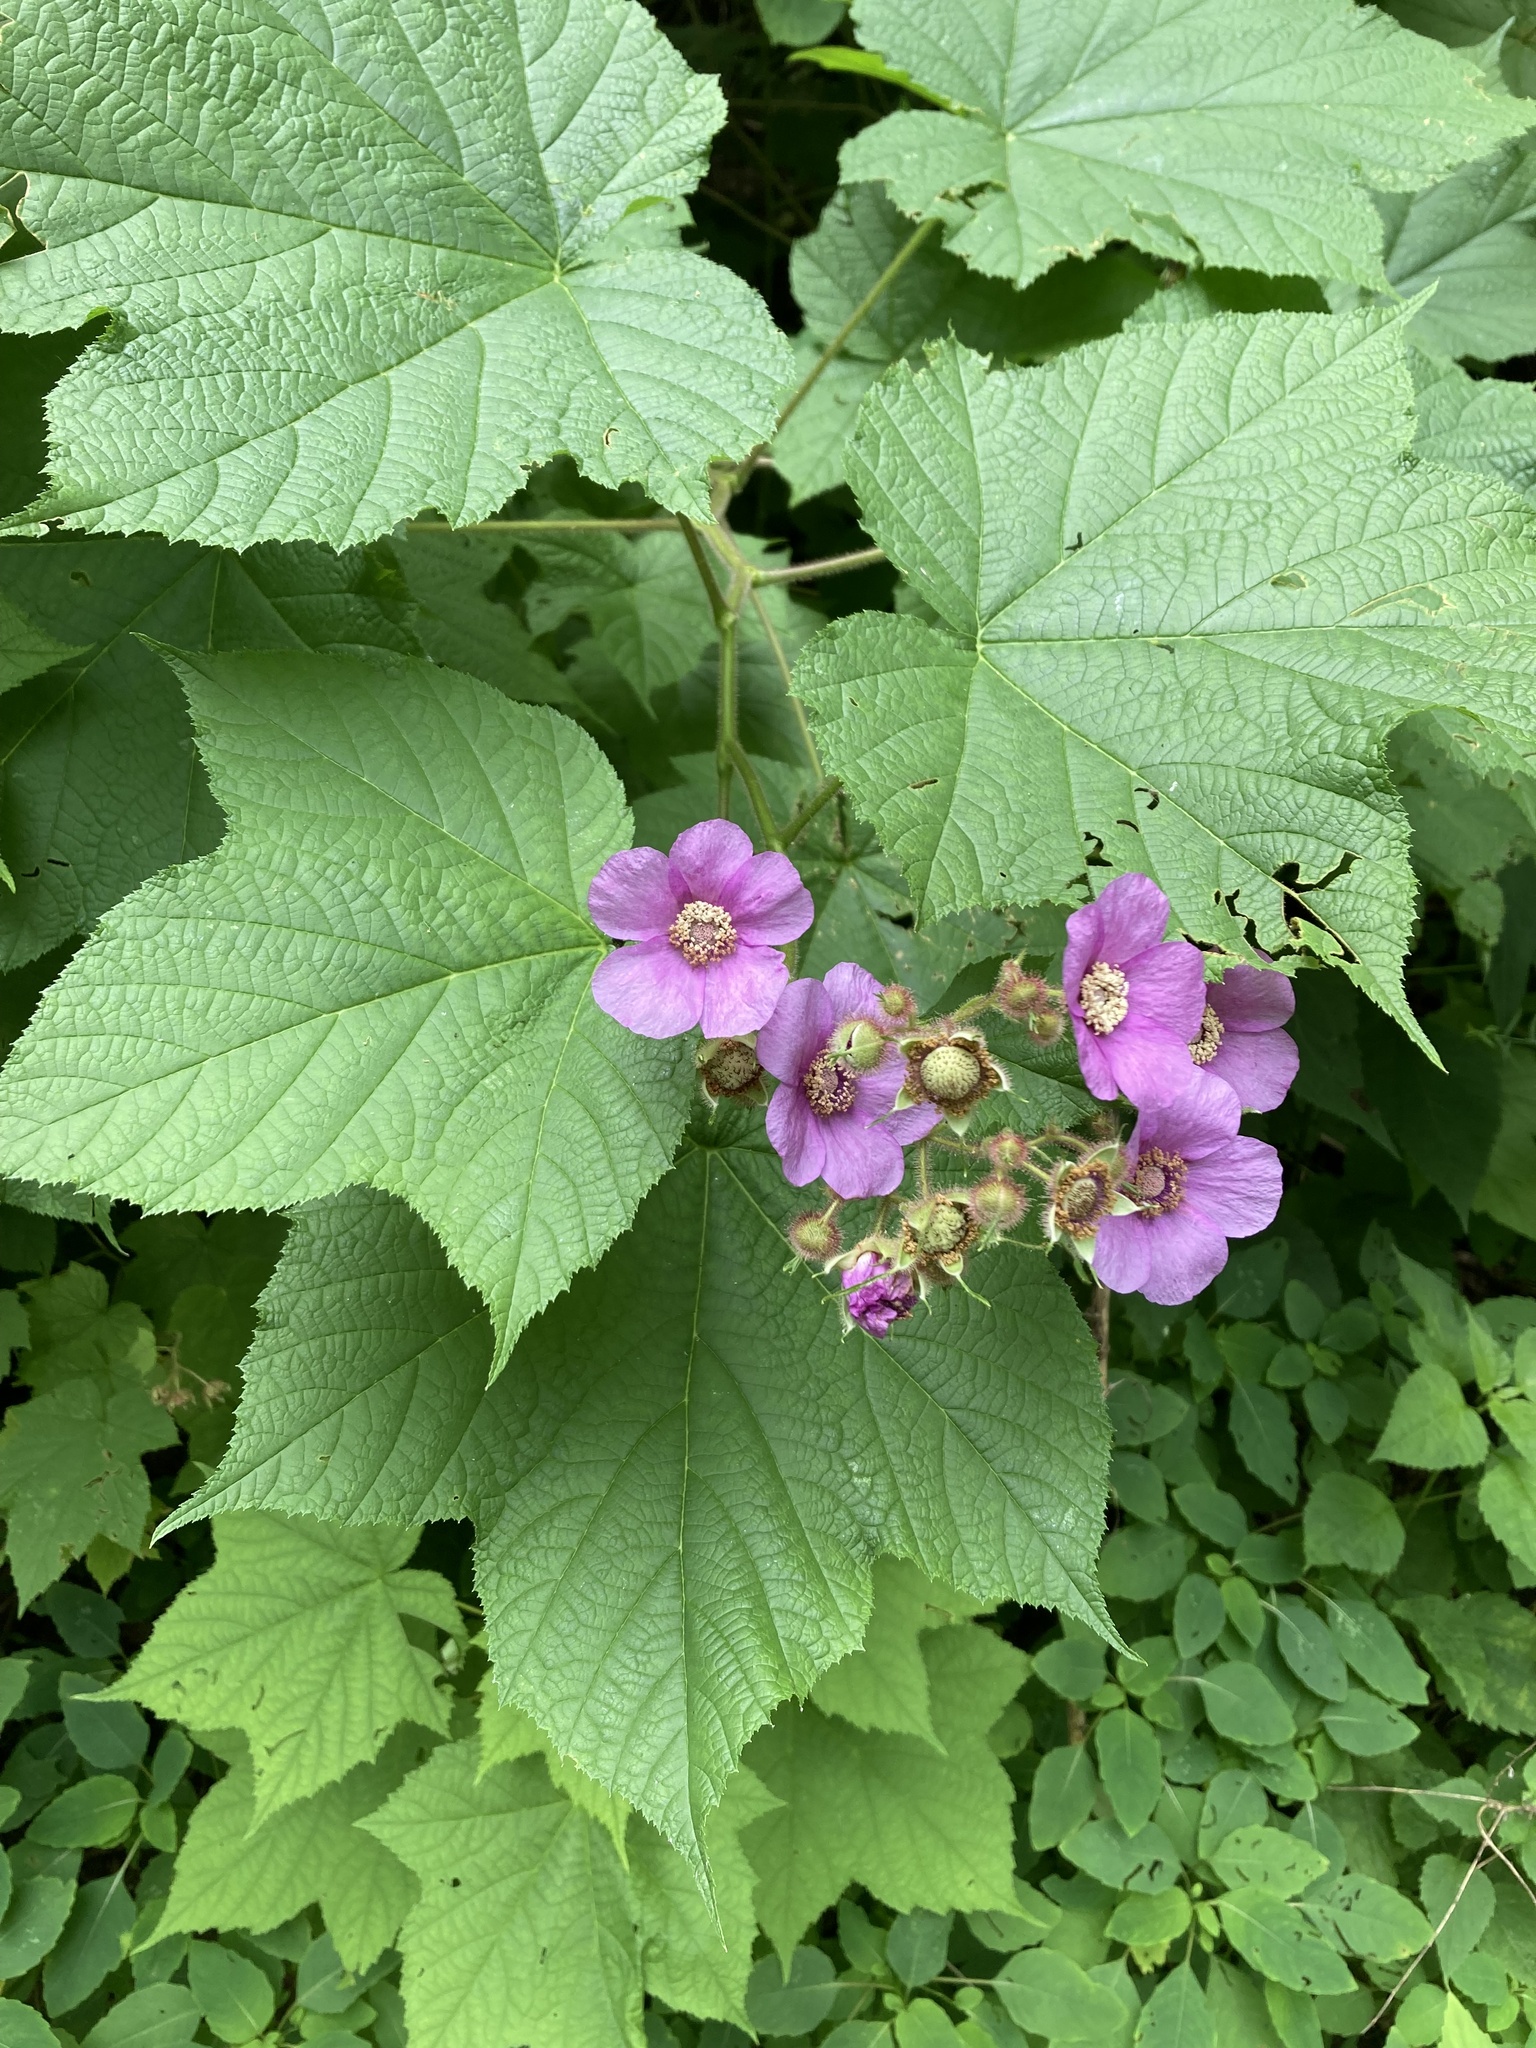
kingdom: Plantae
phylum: Tracheophyta
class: Magnoliopsida
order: Rosales
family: Rosaceae
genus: Rubus
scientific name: Rubus odoratus
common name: Purple-flowered raspberry
